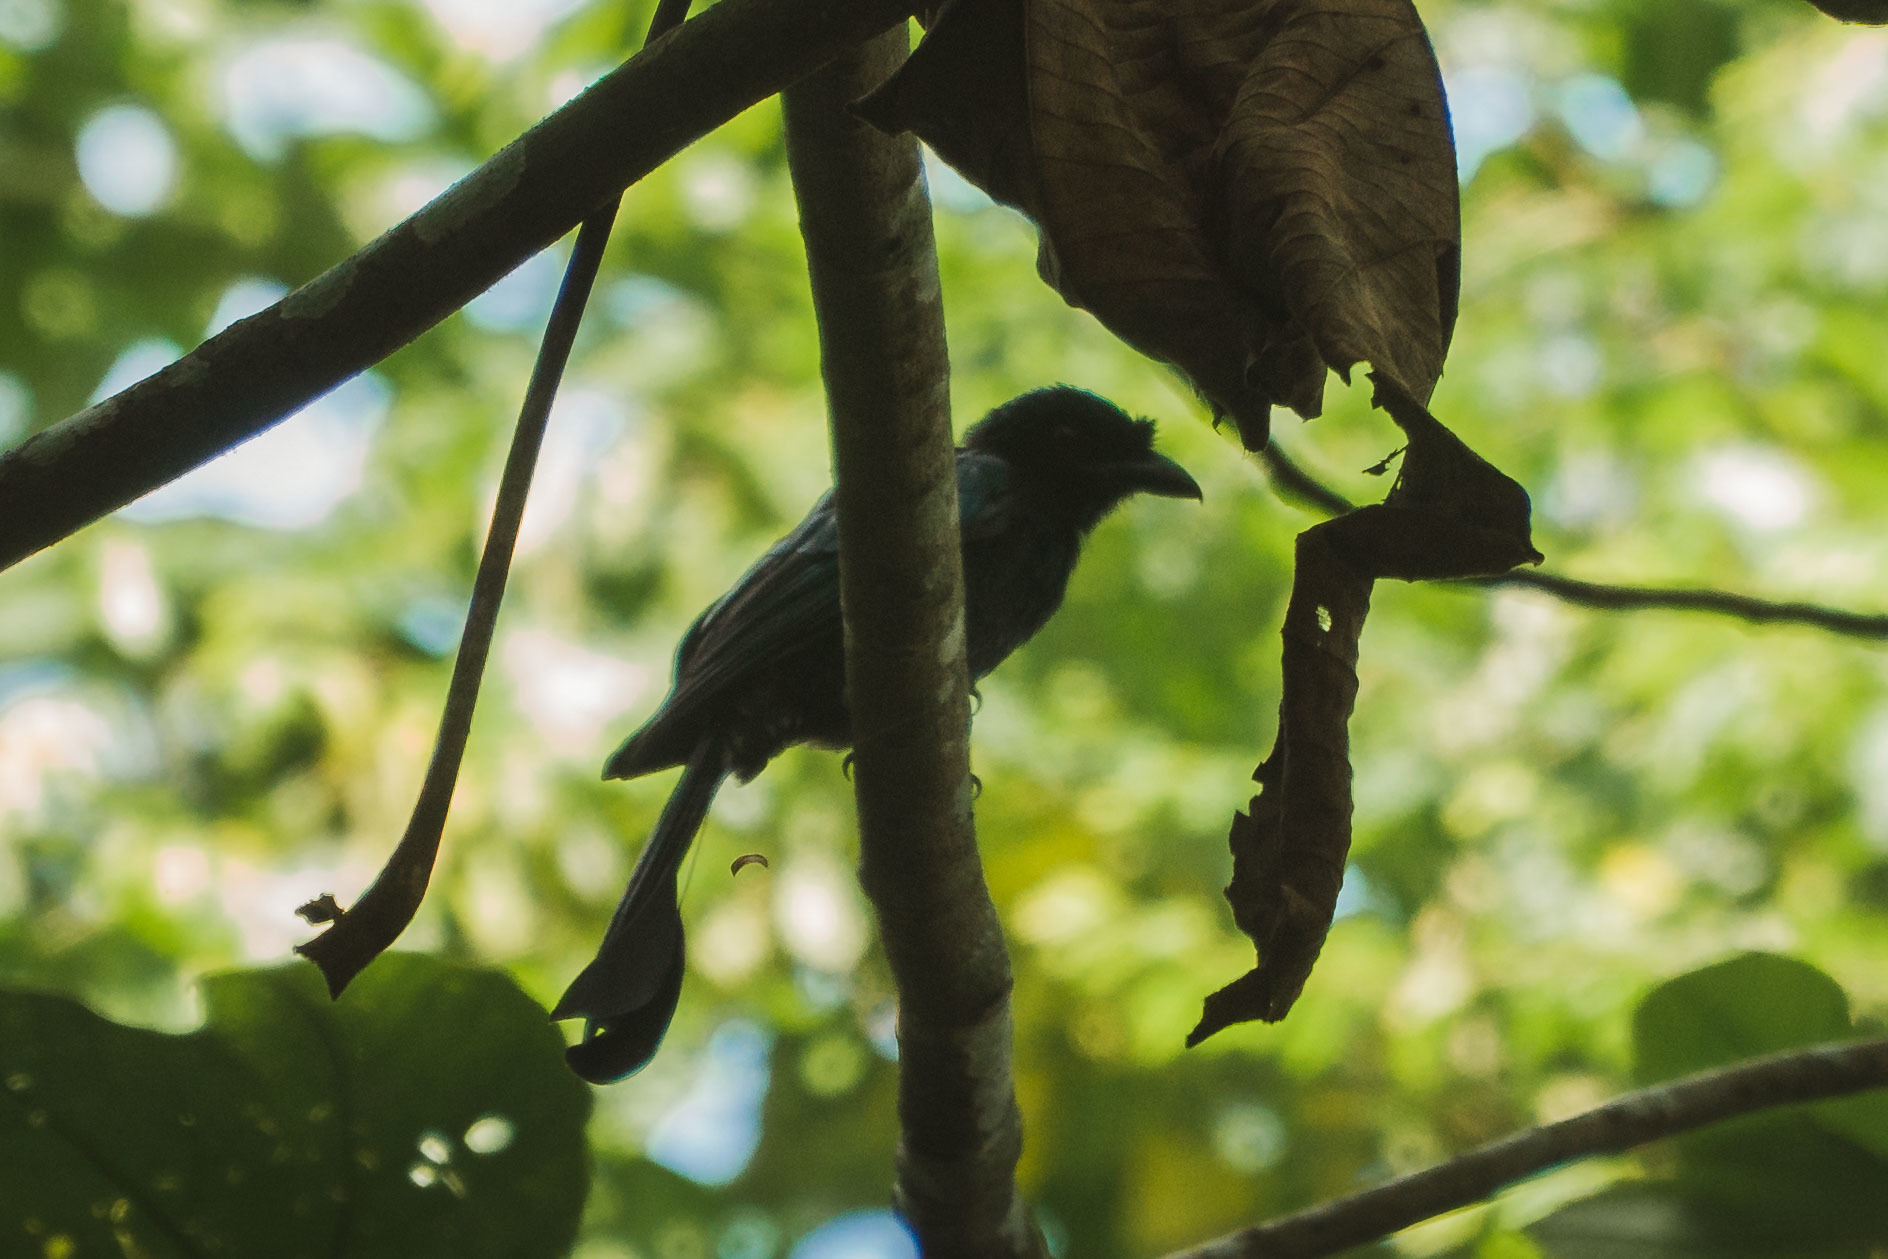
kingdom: Animalia
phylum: Chordata
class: Aves
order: Passeriformes
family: Dicruridae
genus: Dicrurus
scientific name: Dicrurus paradiseus
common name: Greater racket-tailed drongo
